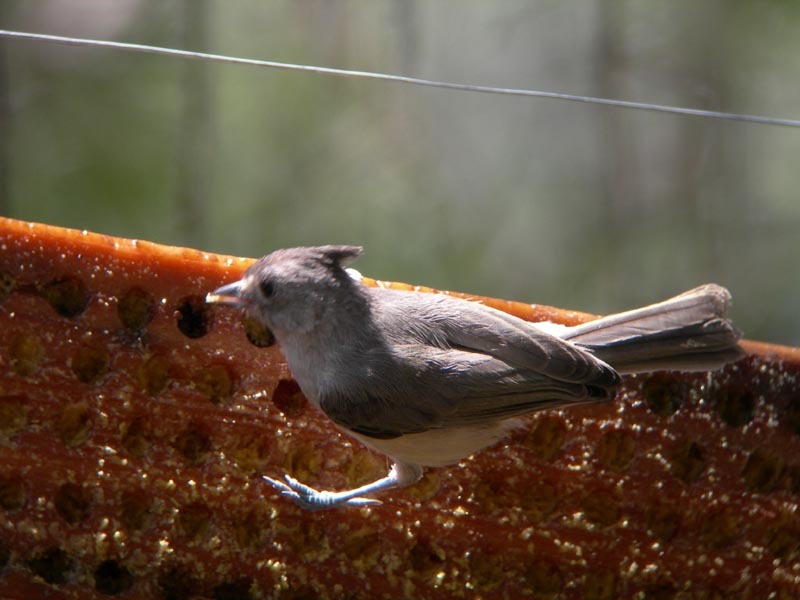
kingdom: Animalia
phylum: Chordata
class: Aves
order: Passeriformes
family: Paridae
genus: Baeolophus
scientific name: Baeolophus atricristatus
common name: Black-crested titmouse
